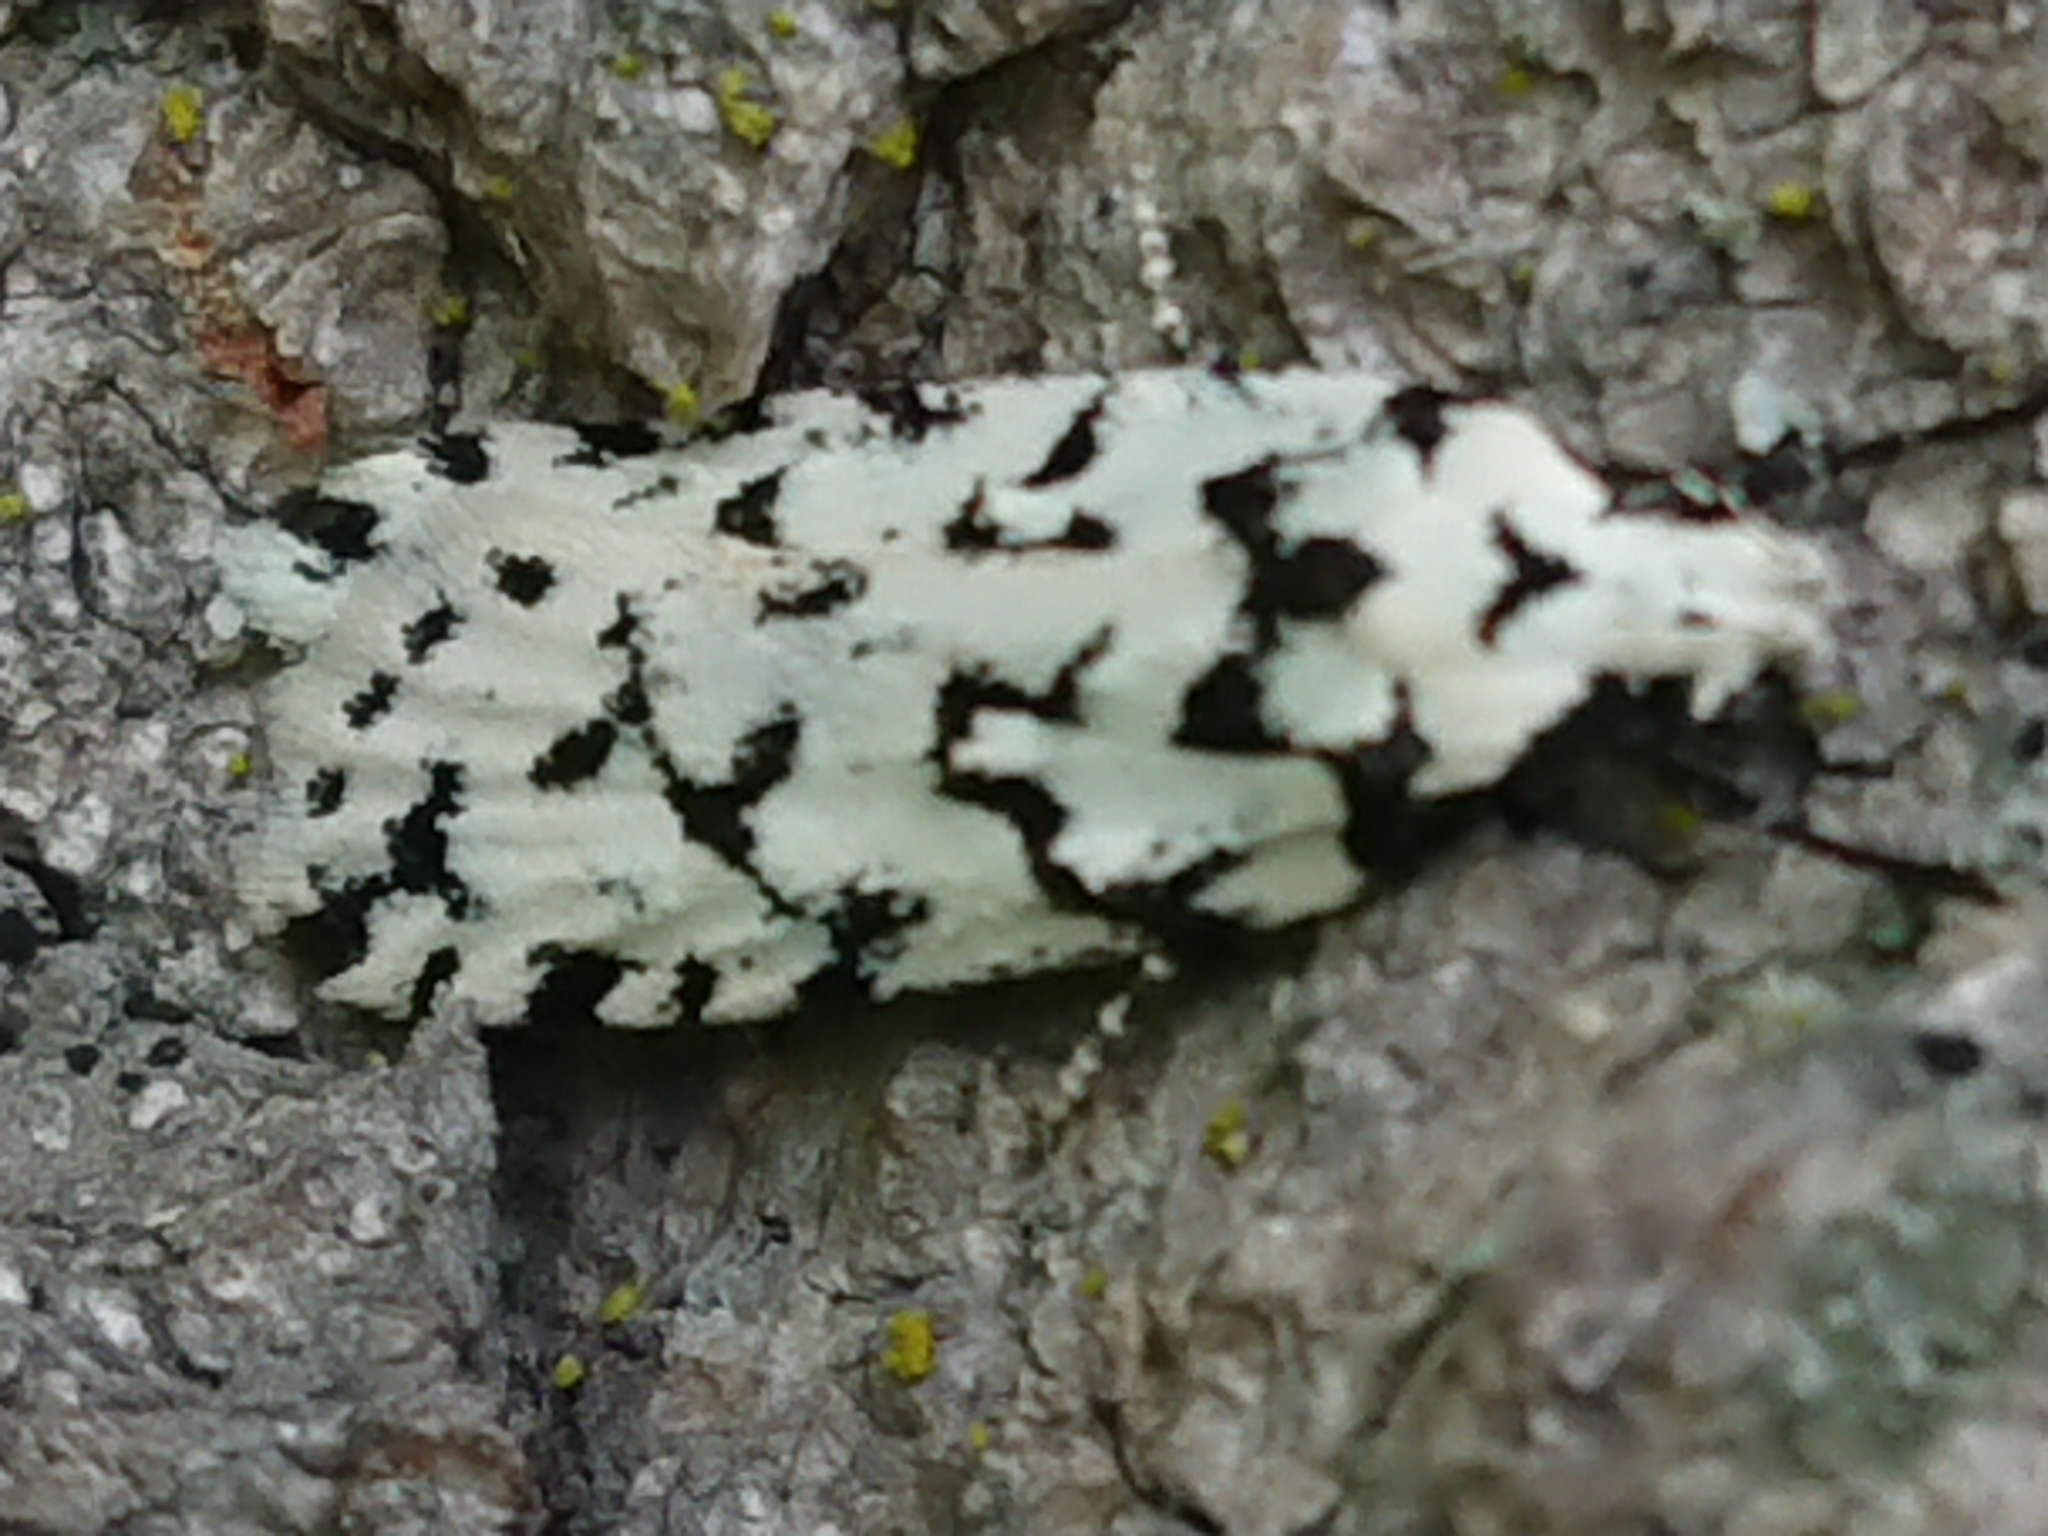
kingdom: Animalia
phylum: Arthropoda
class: Insecta
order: Lepidoptera
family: Oecophoridae
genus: Izatha
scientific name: Izatha katadiktya
